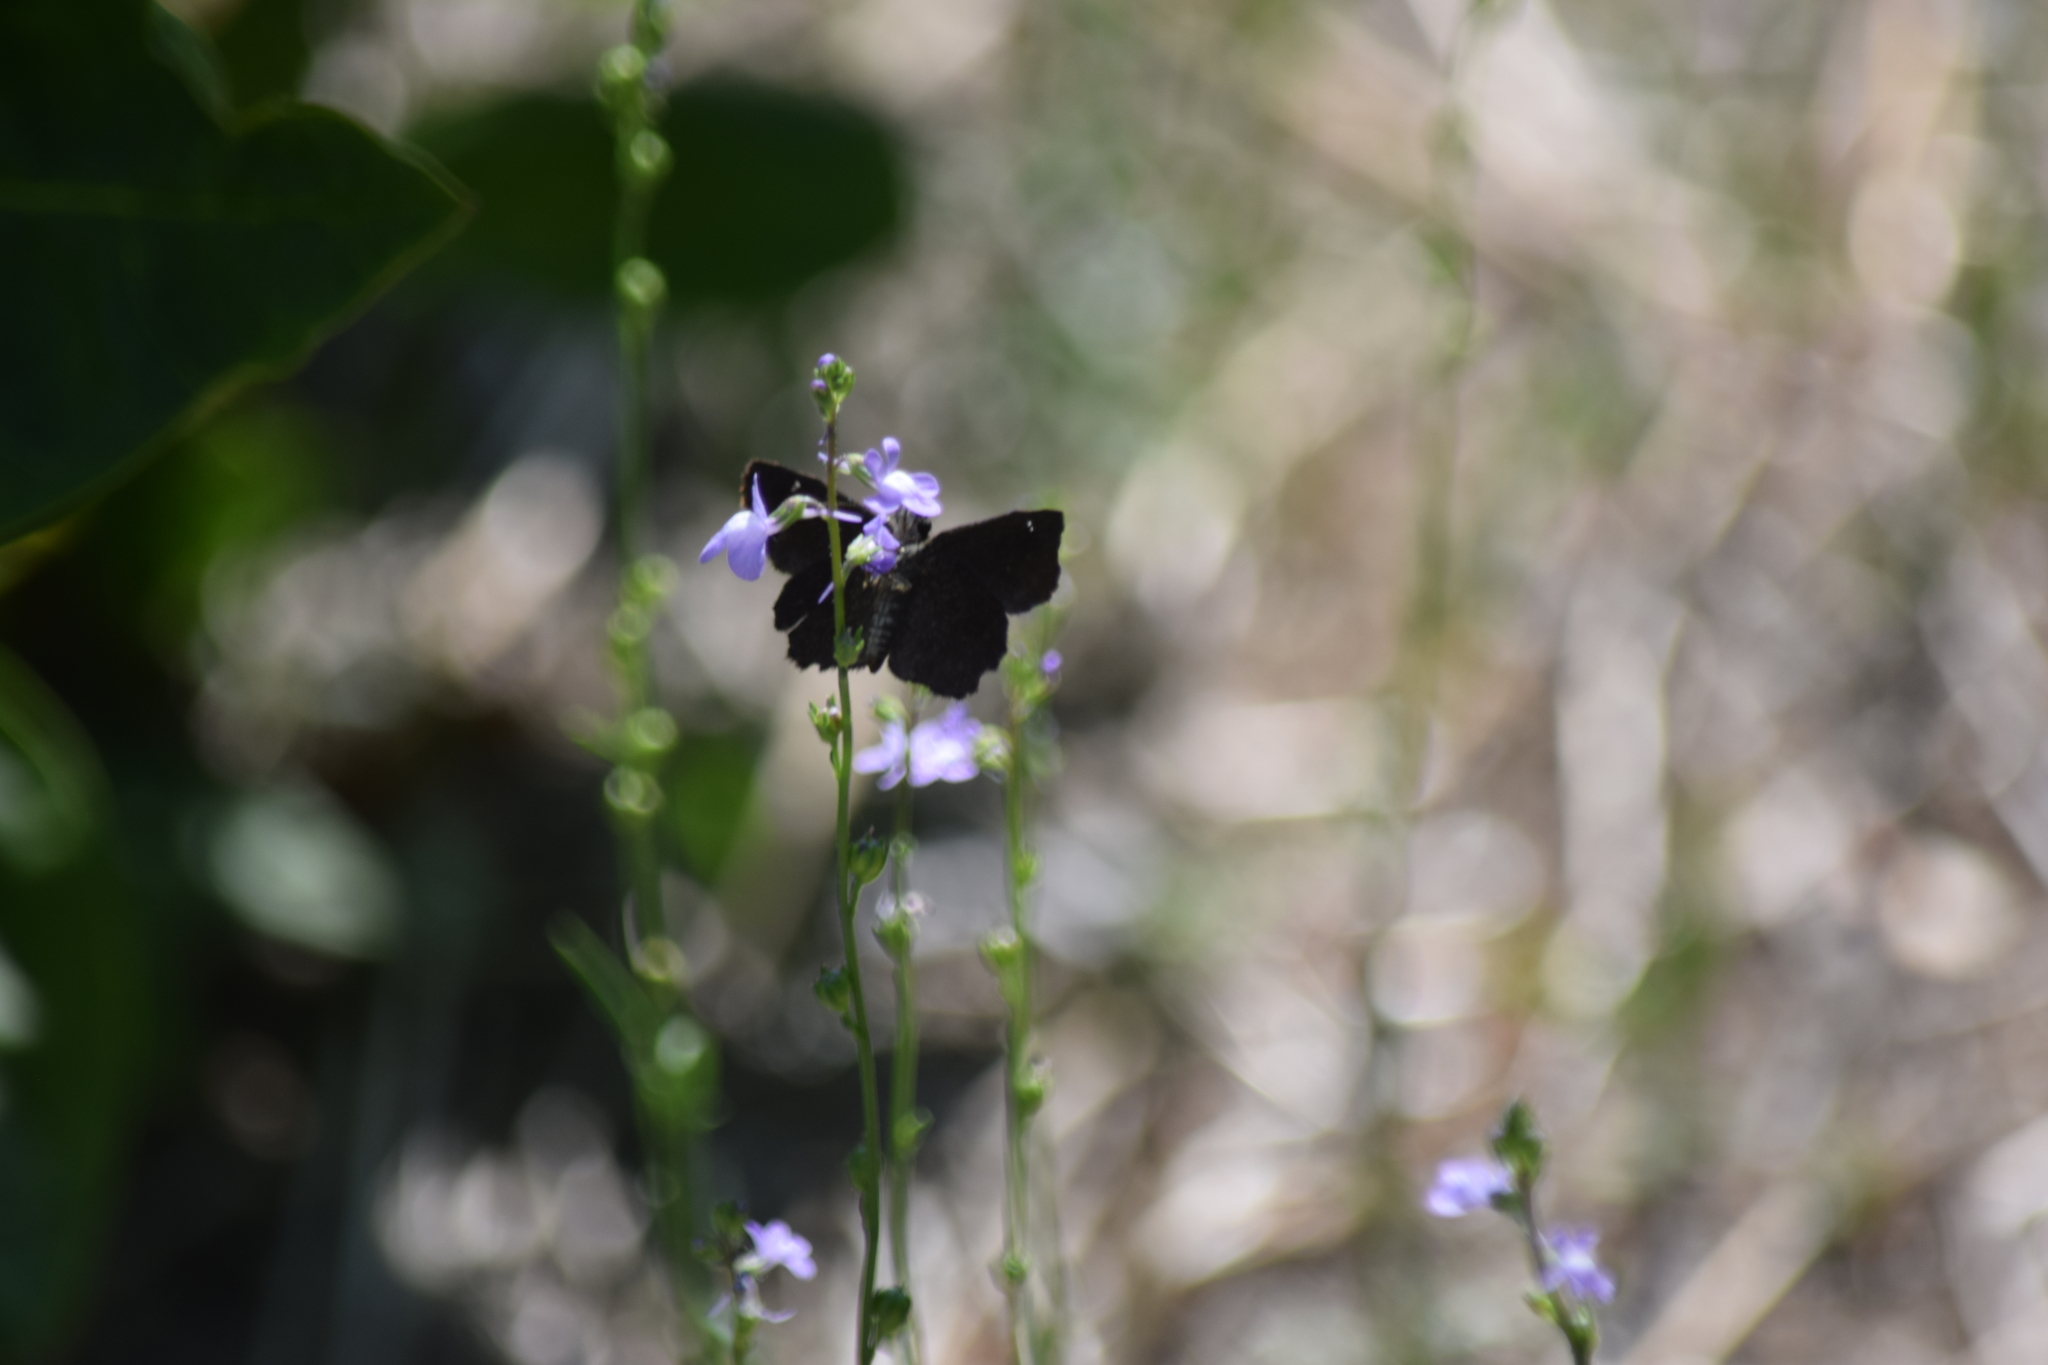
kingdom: Animalia
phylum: Arthropoda
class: Insecta
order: Lepidoptera
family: Hesperiidae
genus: Staphylus
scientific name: Staphylus mazans
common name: Mazans scallopwing
